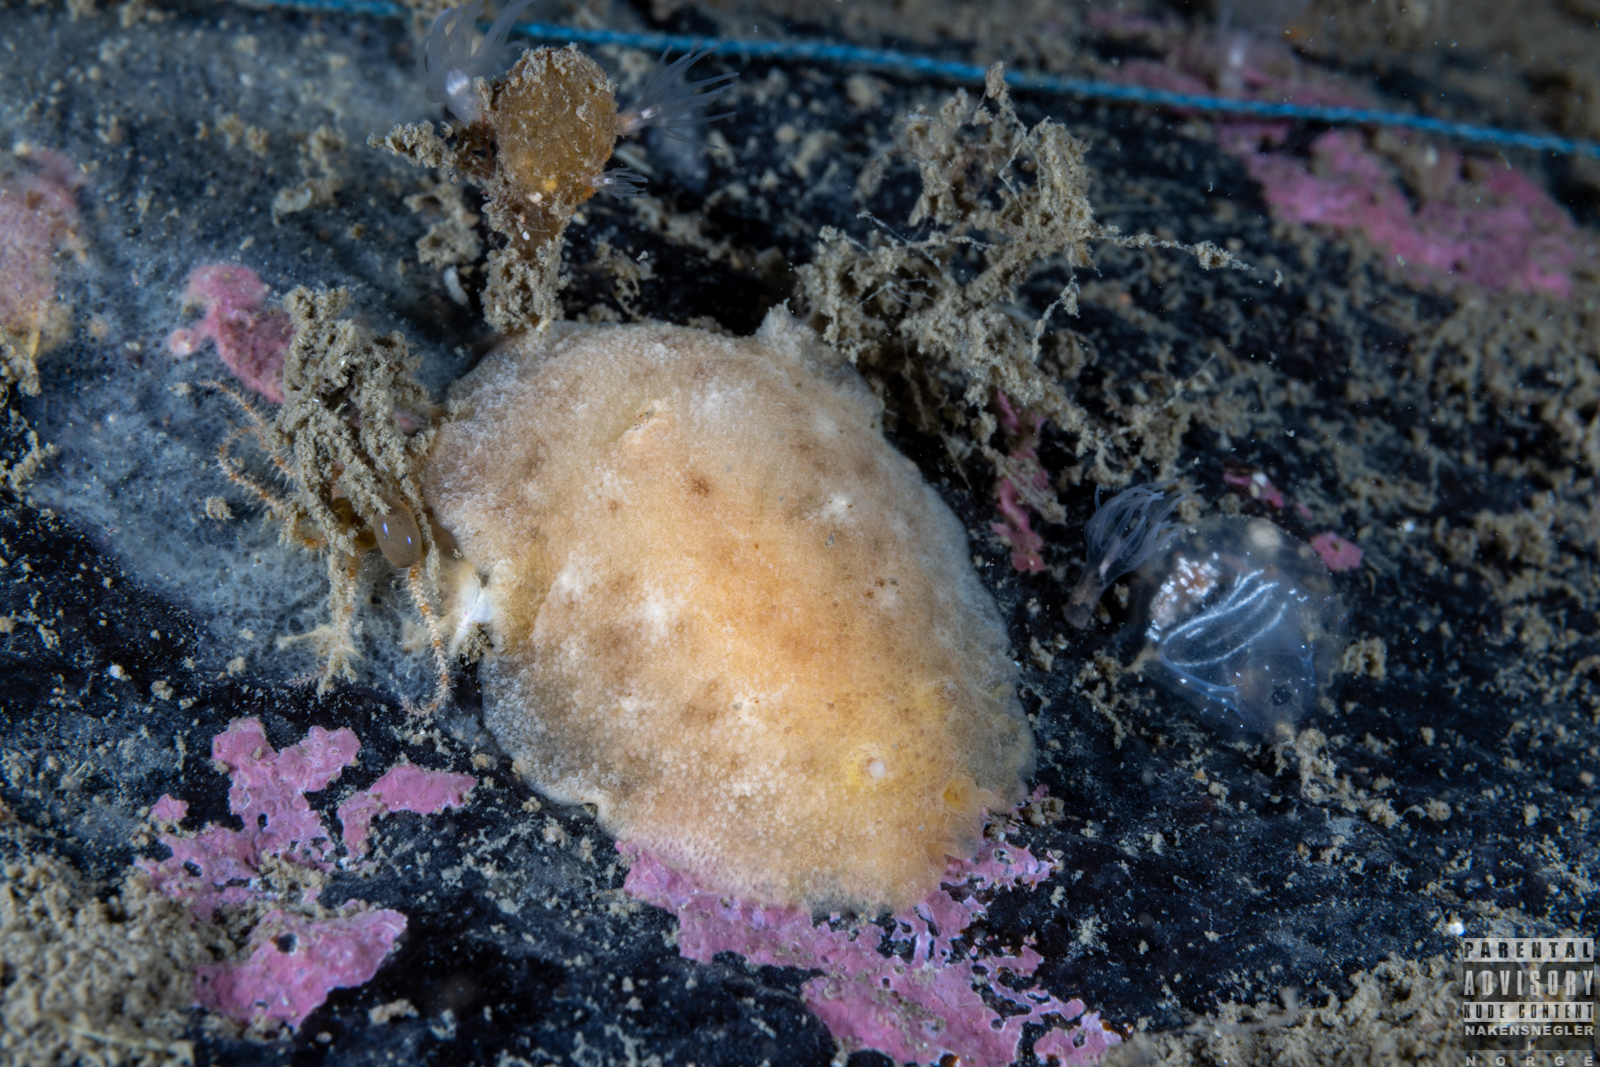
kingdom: Animalia
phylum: Mollusca
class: Gastropoda
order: Nudibranchia
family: Discodorididae
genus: Geitodoris
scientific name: Geitodoris planata
